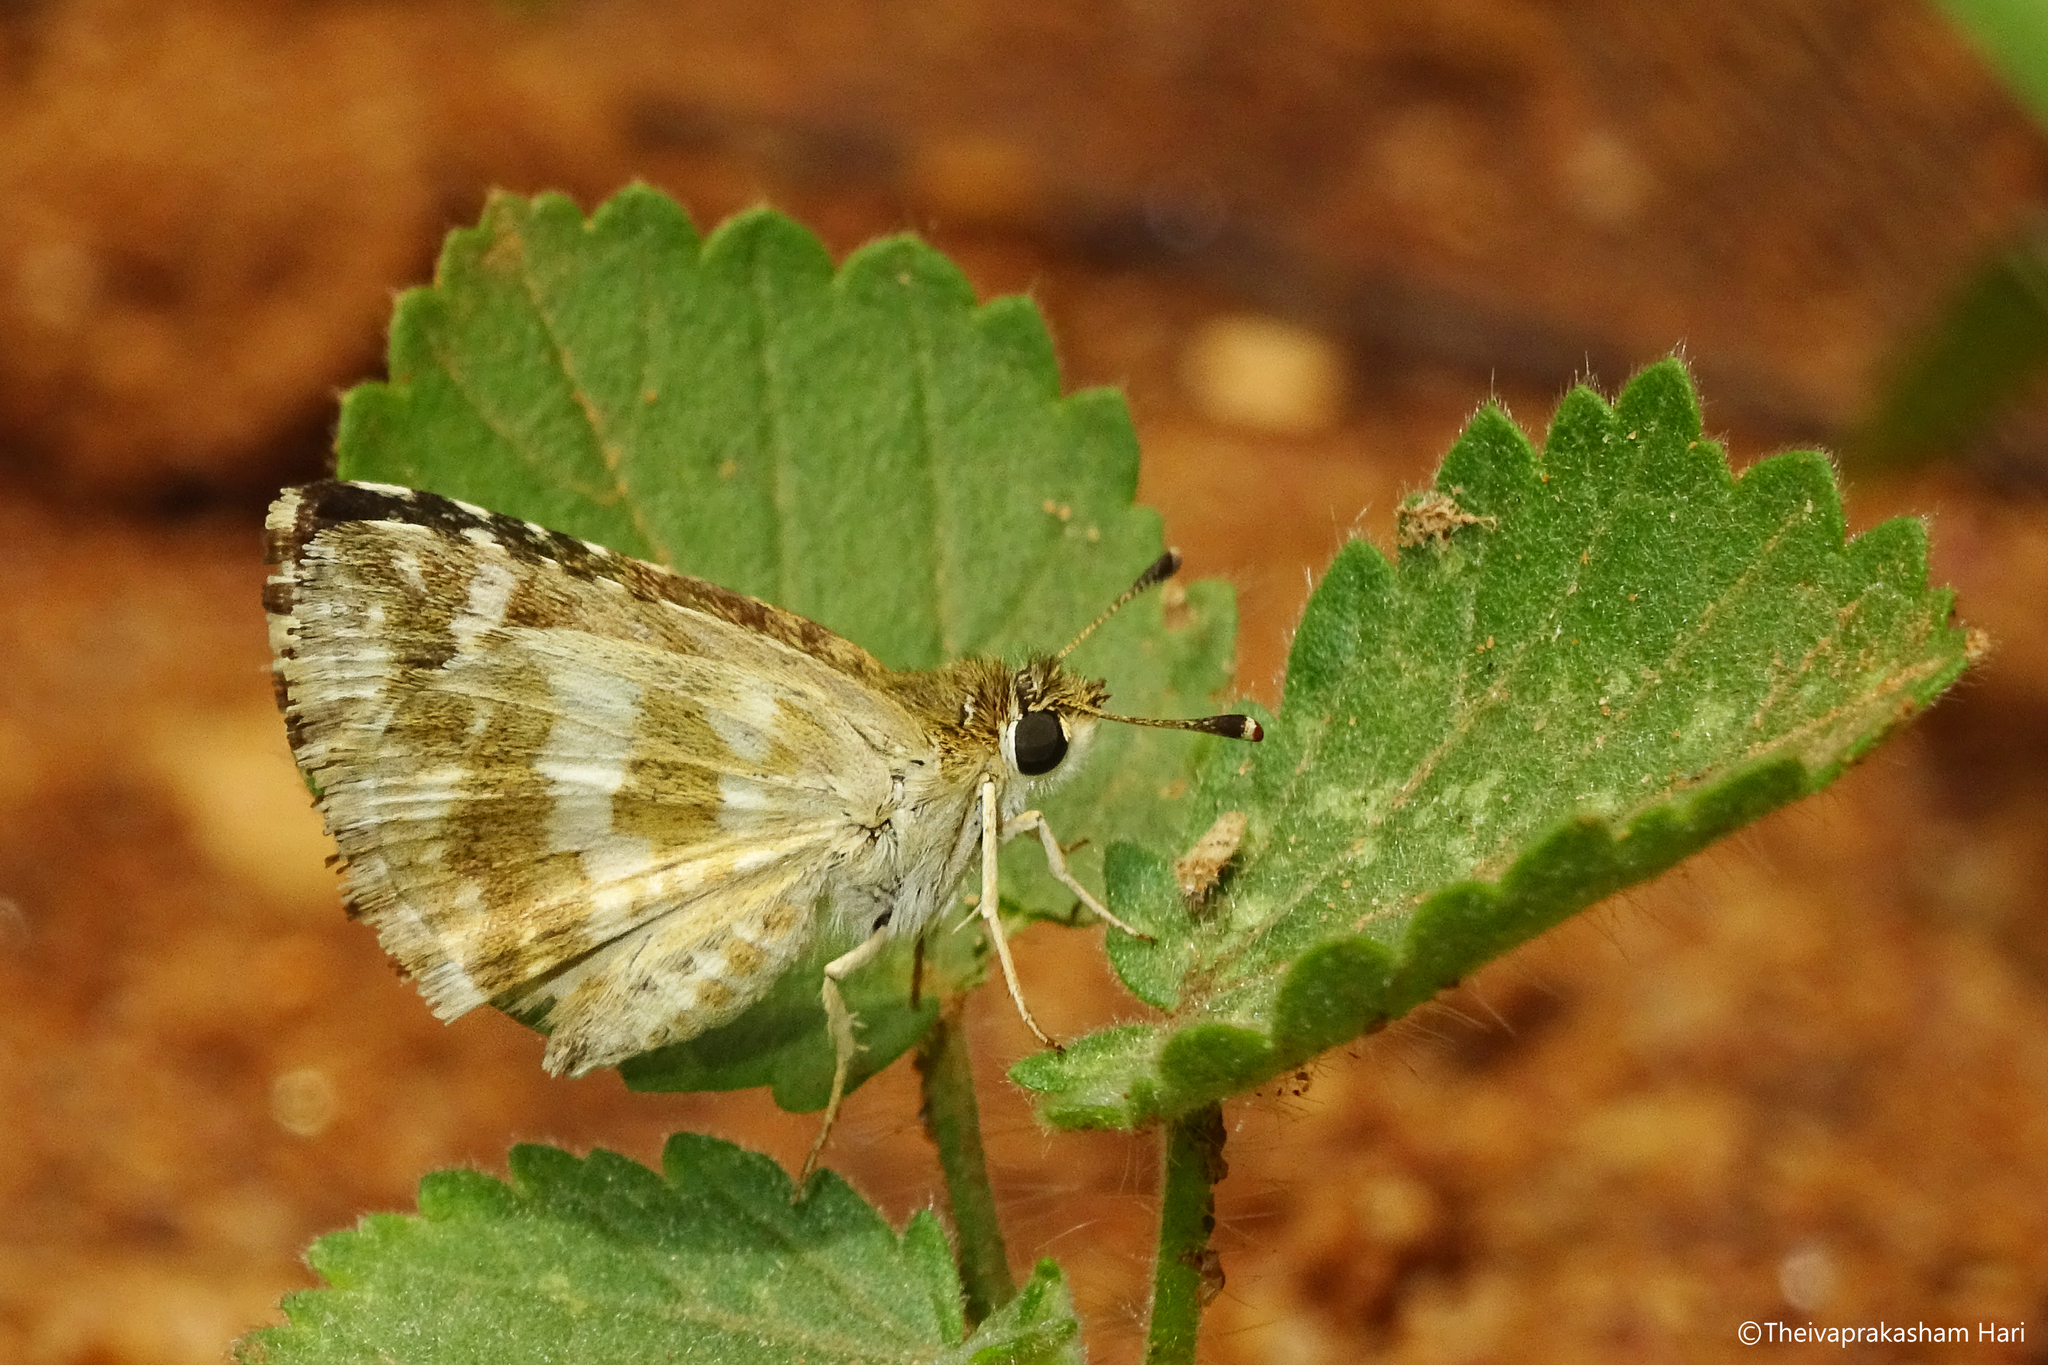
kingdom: Animalia
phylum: Arthropoda
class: Insecta
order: Lepidoptera
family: Hesperiidae
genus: Spialia
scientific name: Spialia galba
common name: Indian skipper
